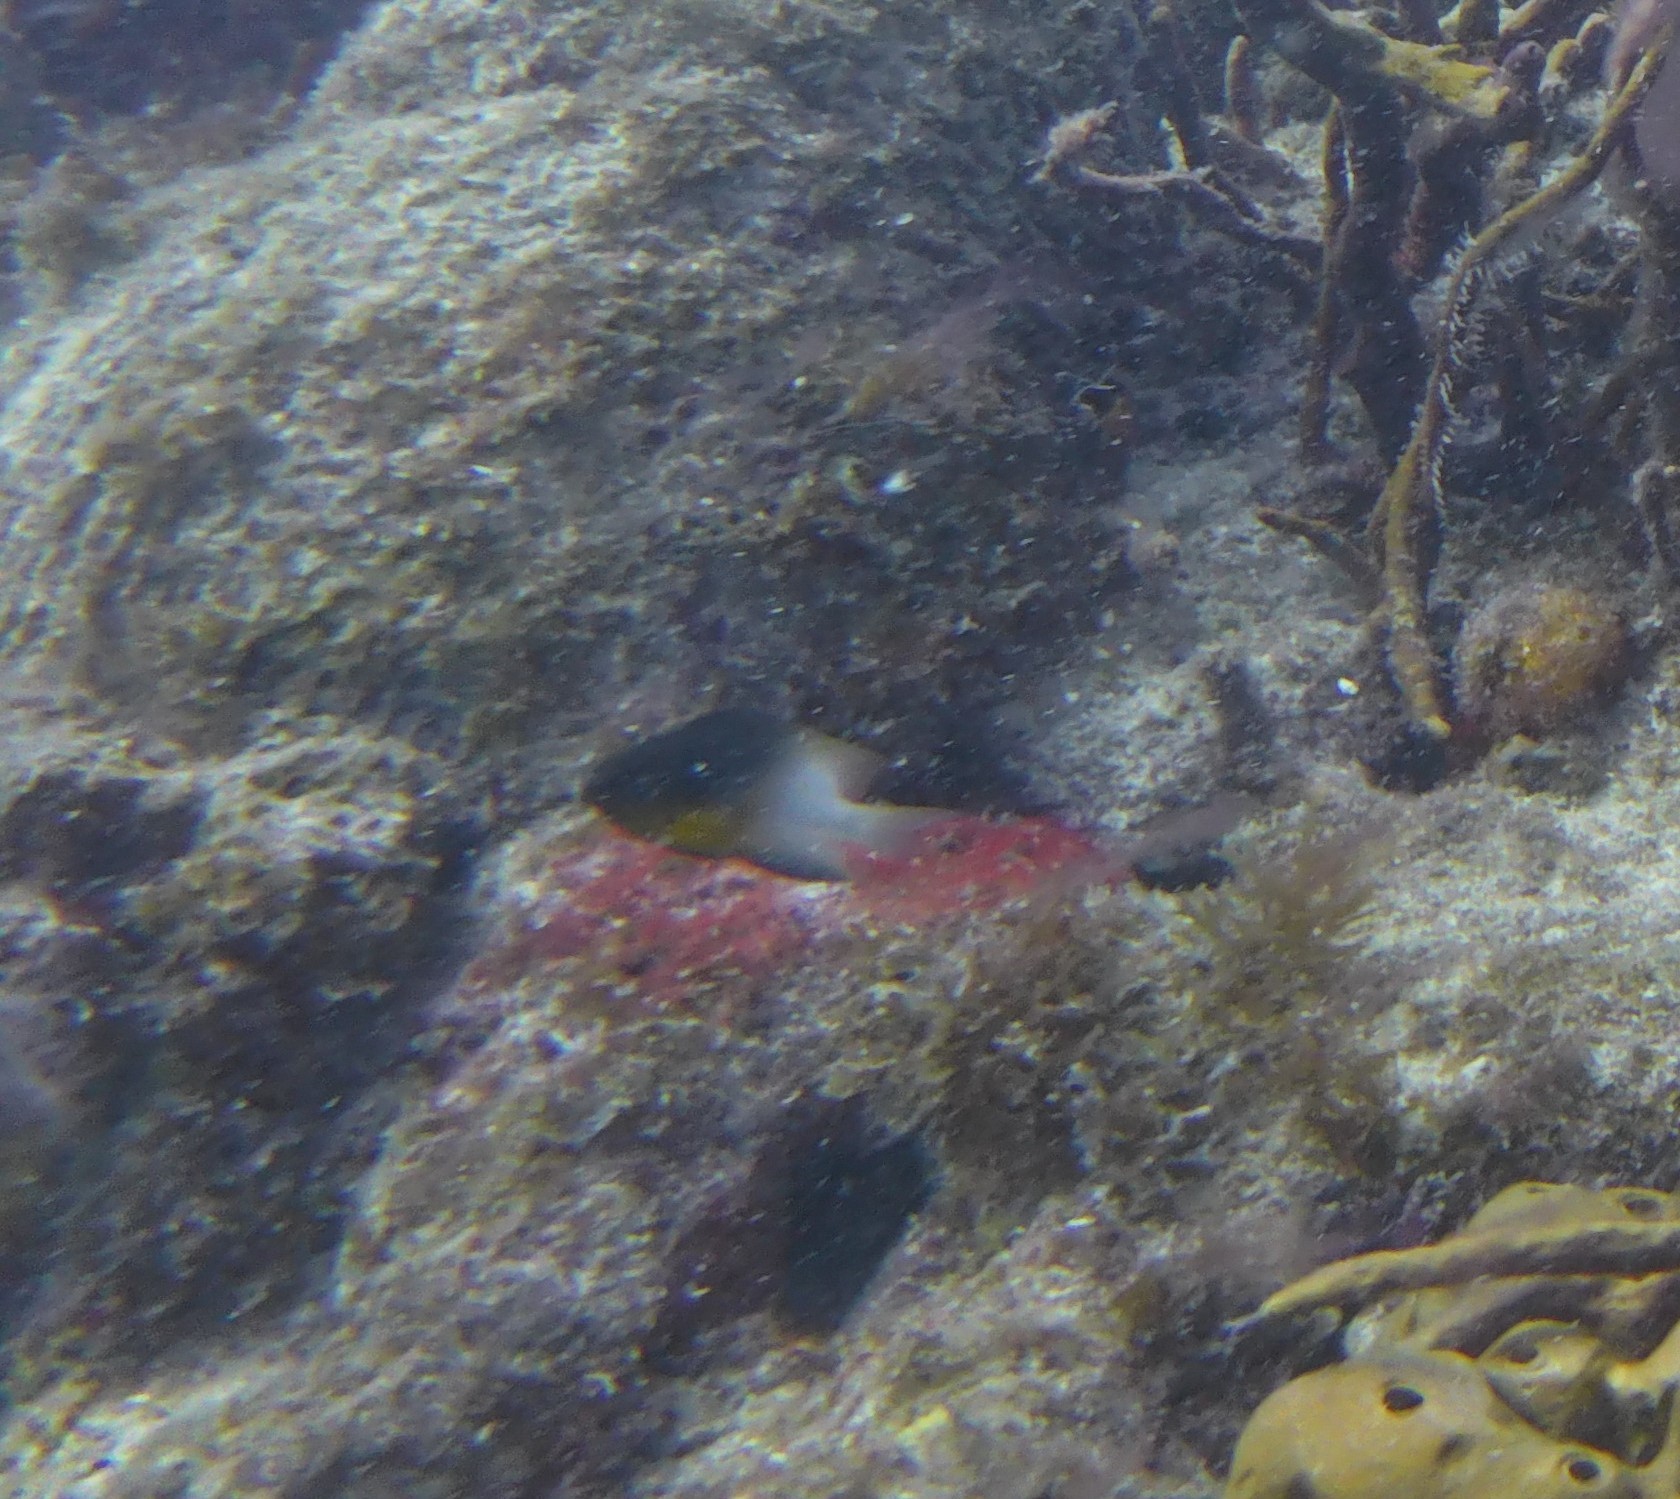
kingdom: Animalia
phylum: Chordata
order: Perciformes
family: Pomacentridae
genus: Stegastes
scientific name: Stegastes partitus
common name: Bicolor damselfish
